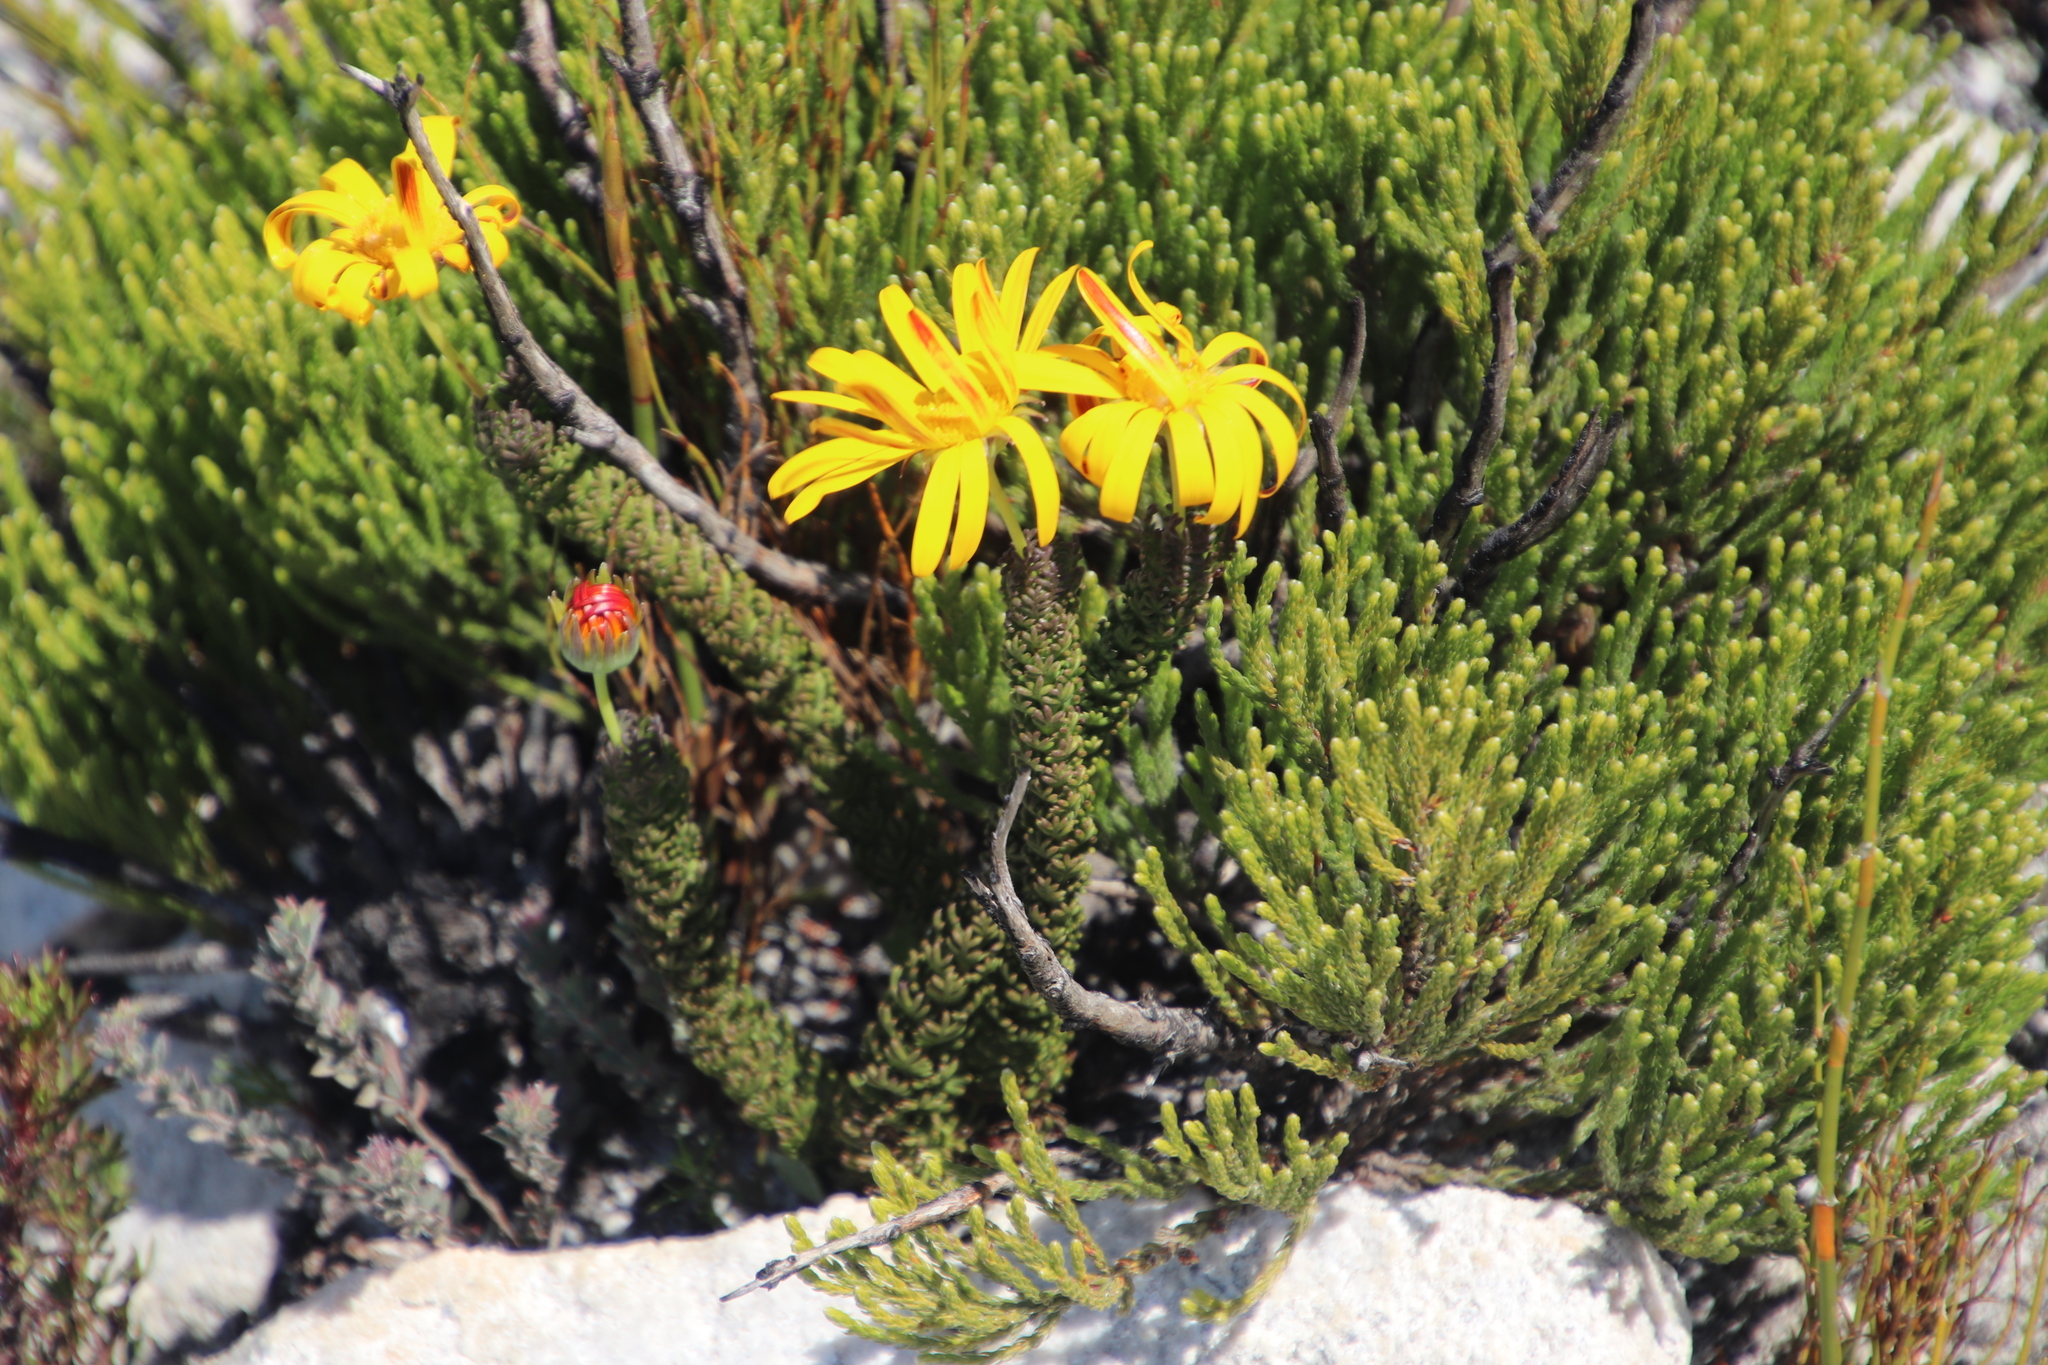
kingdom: Plantae
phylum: Tracheophyta
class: Magnoliopsida
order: Asterales
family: Asteraceae
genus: Euryops
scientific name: Euryops abrotanifolius
